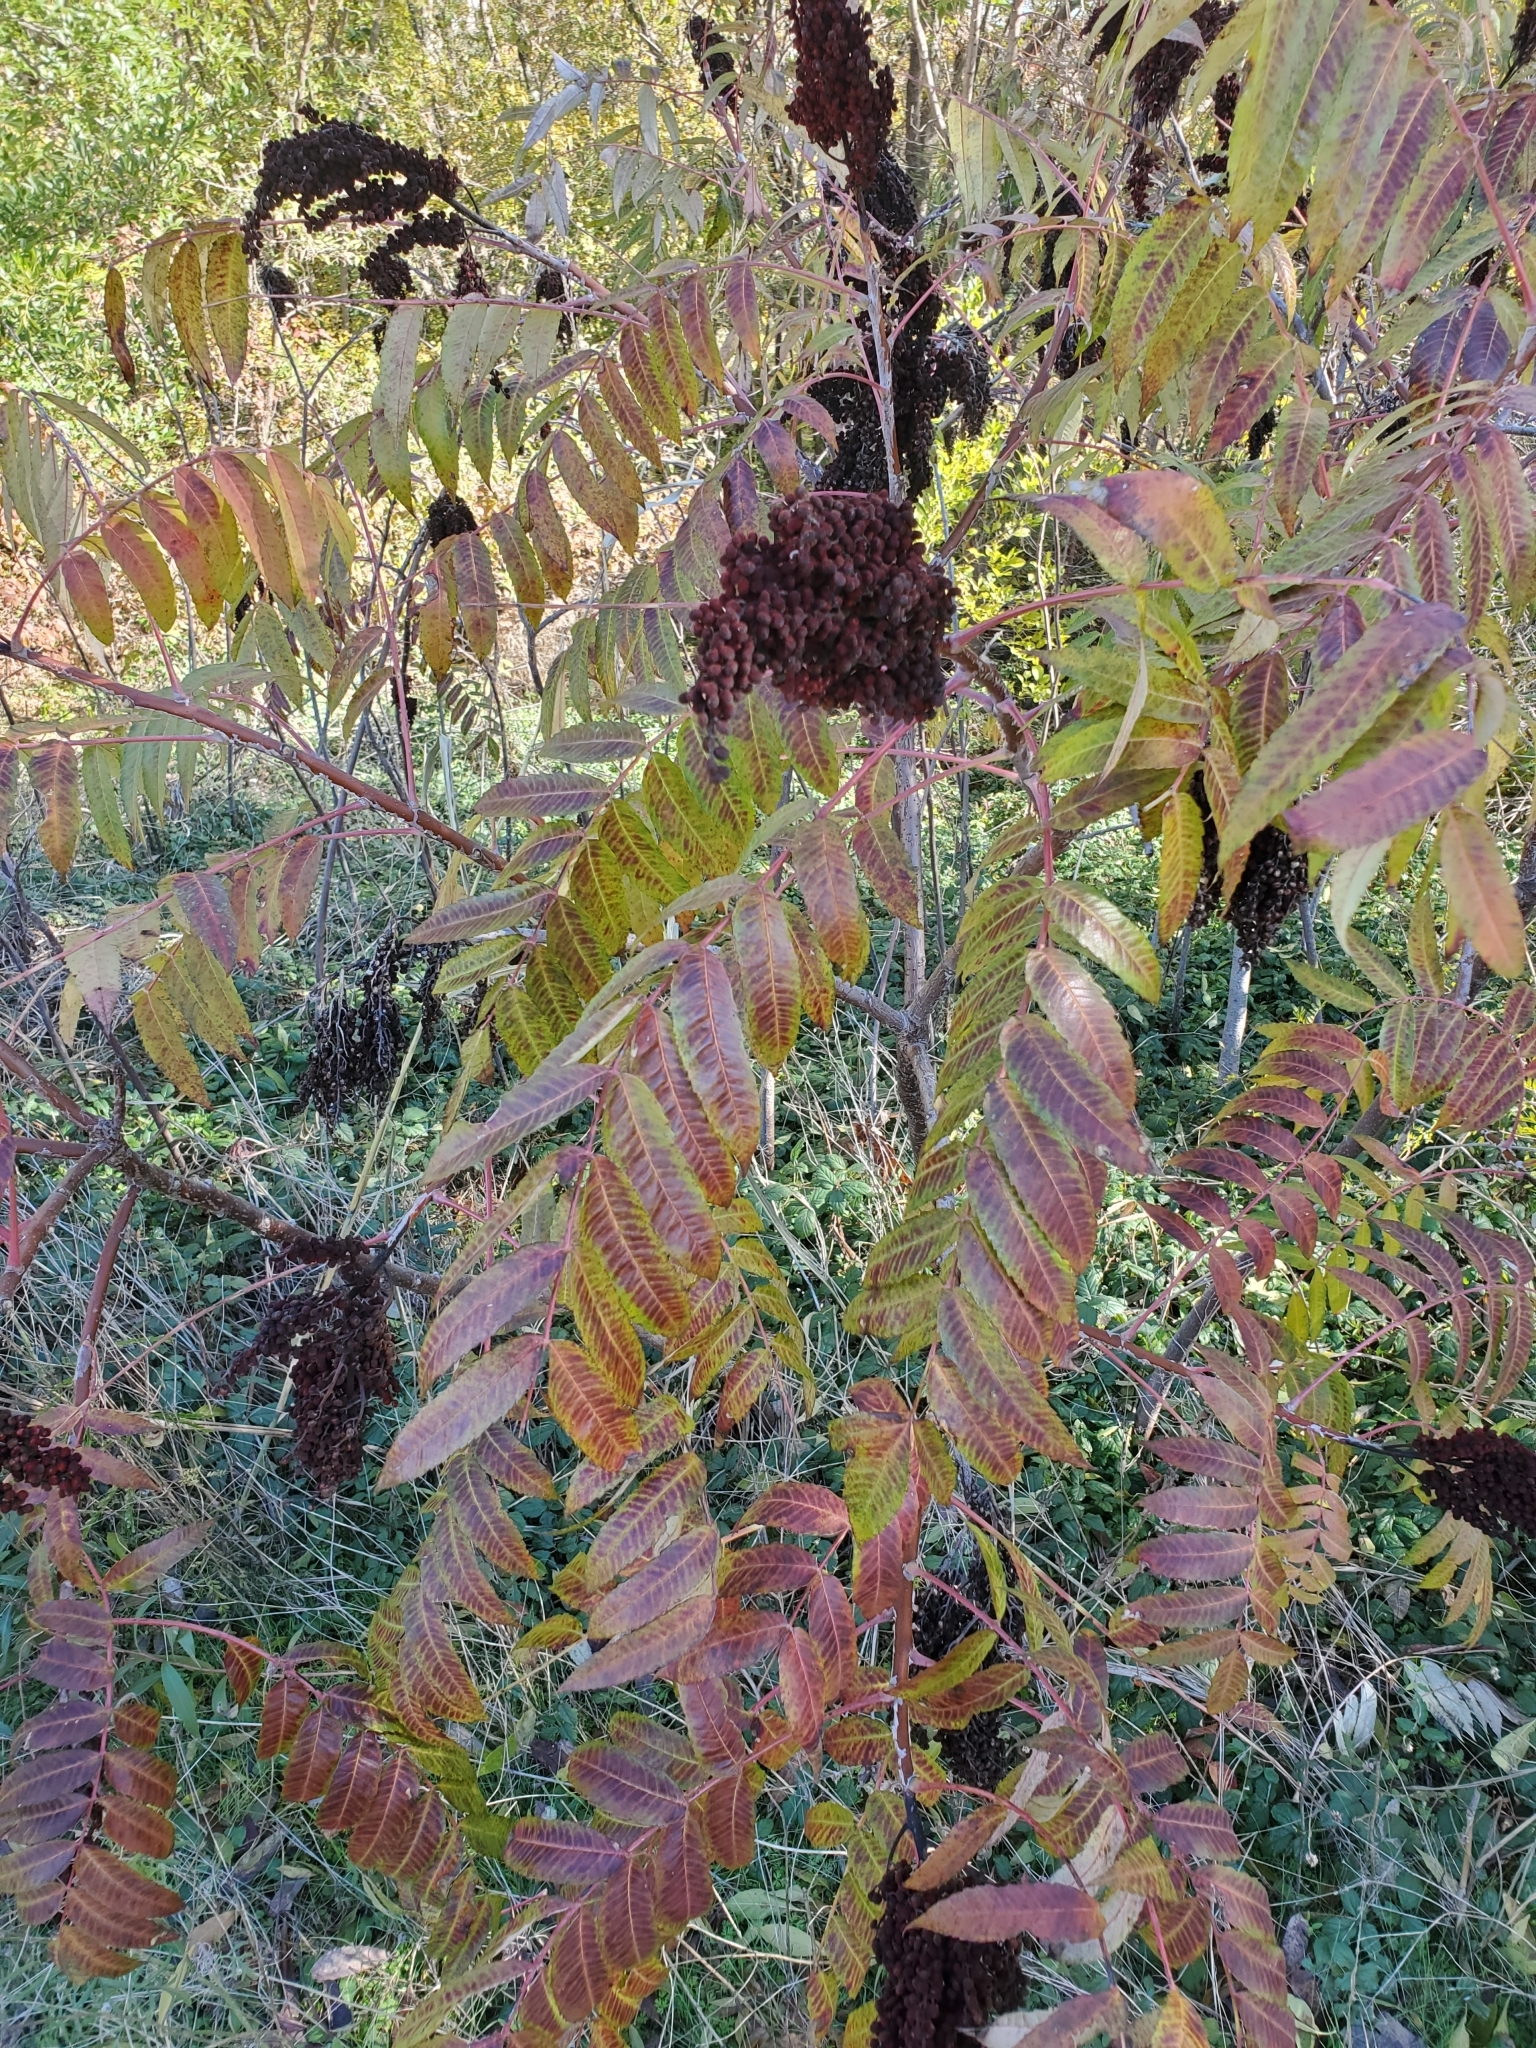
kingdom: Plantae
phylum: Tracheophyta
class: Magnoliopsida
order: Sapindales
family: Anacardiaceae
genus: Rhus
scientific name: Rhus glabra
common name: Scarlet sumac
